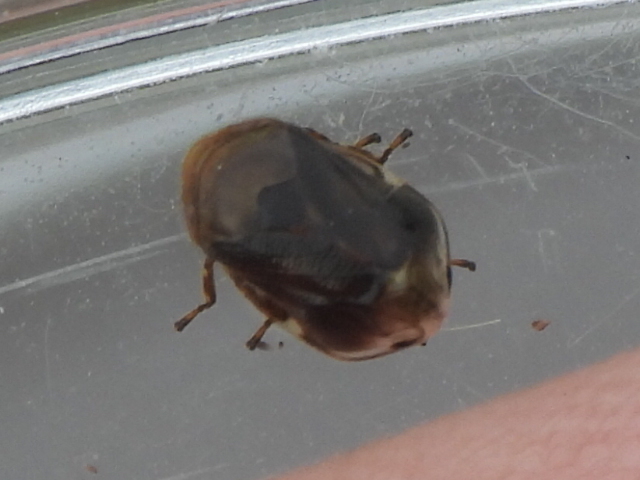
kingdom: Animalia
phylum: Arthropoda
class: Insecta
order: Hemiptera
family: Clastopteridae
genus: Clastoptera
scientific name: Clastoptera xanthocephala
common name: Sunflower spittlebug
